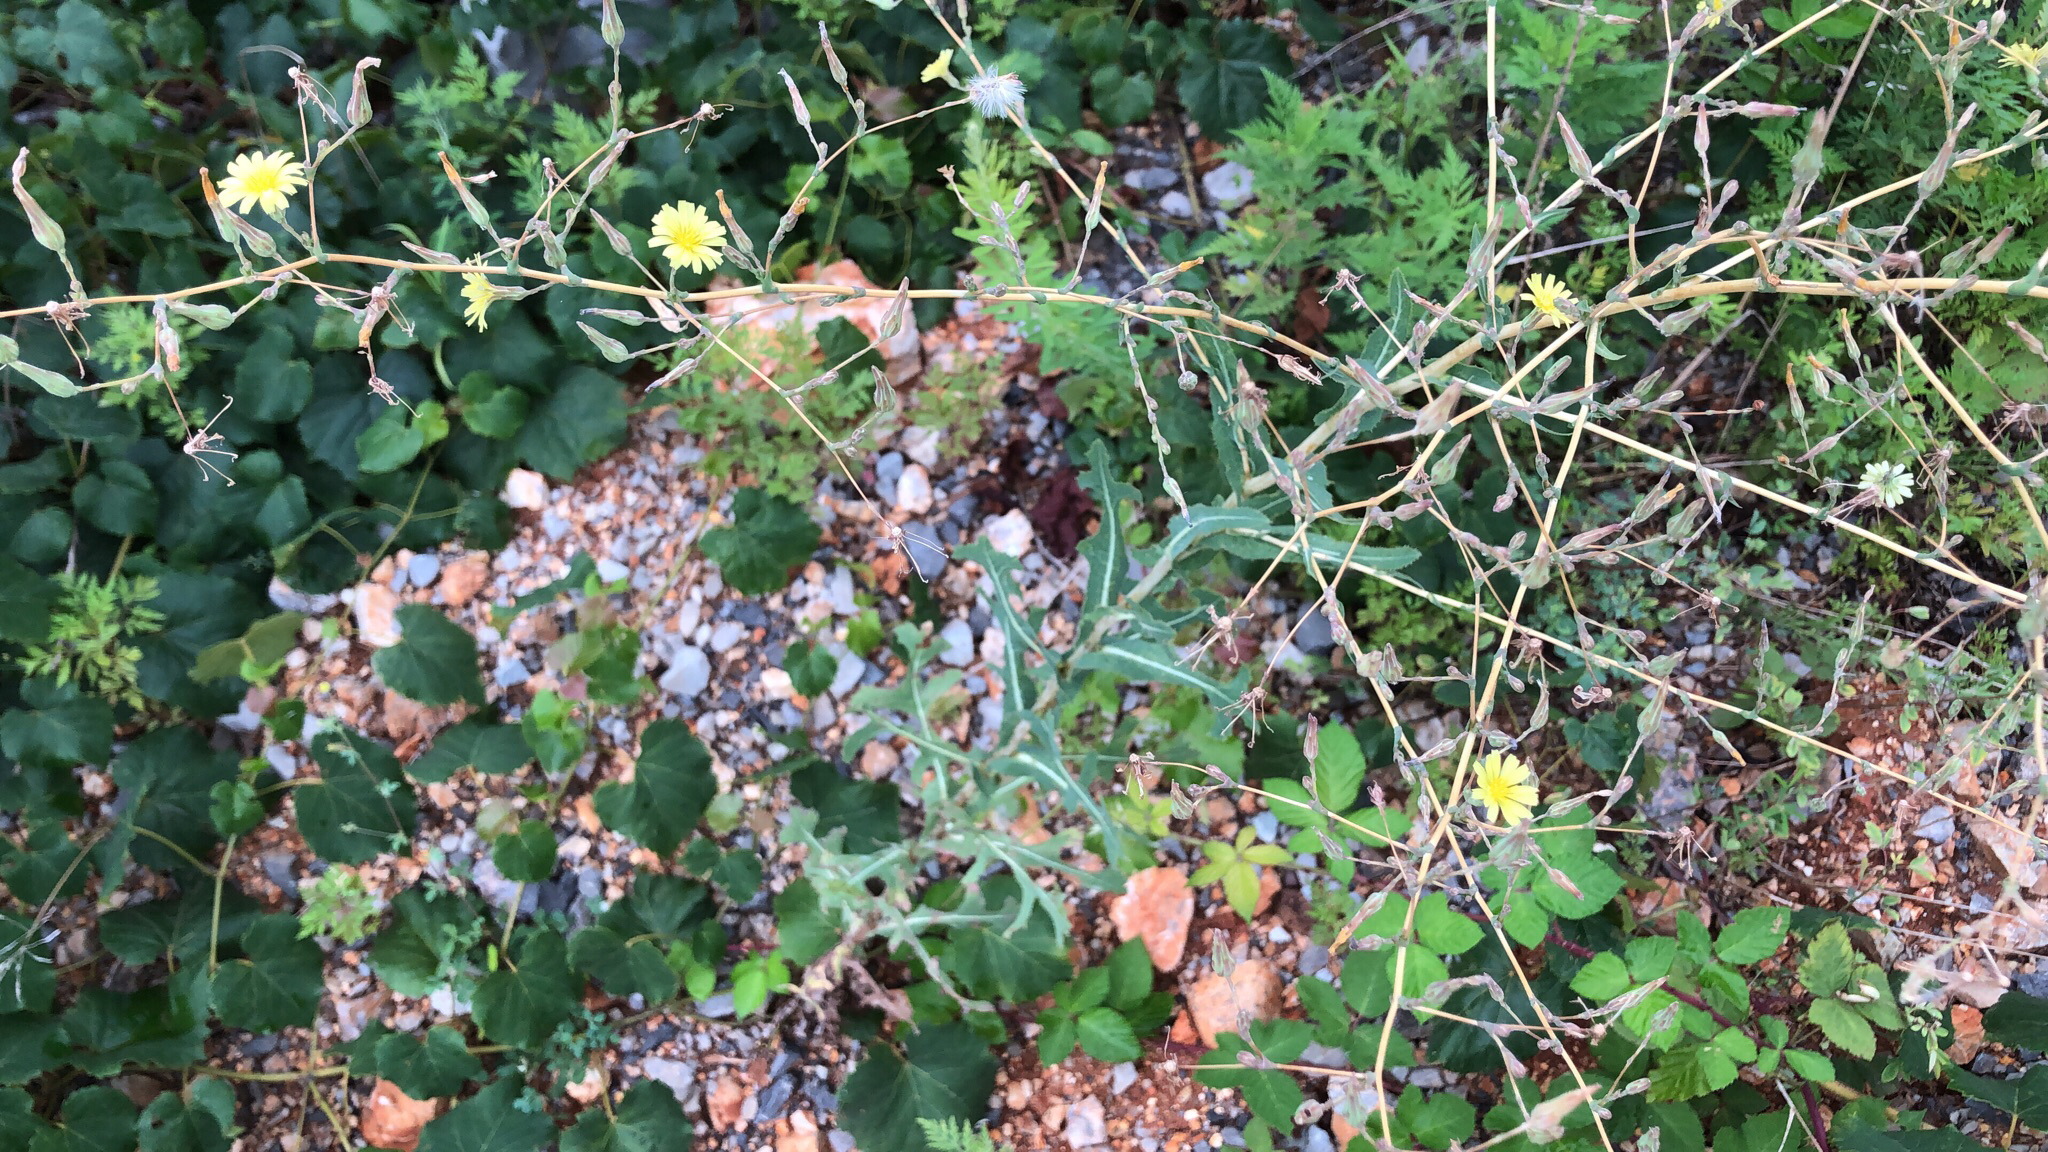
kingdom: Plantae
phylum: Tracheophyta
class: Magnoliopsida
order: Asterales
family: Asteraceae
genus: Lactuca
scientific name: Lactuca serriola
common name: Prickly lettuce
